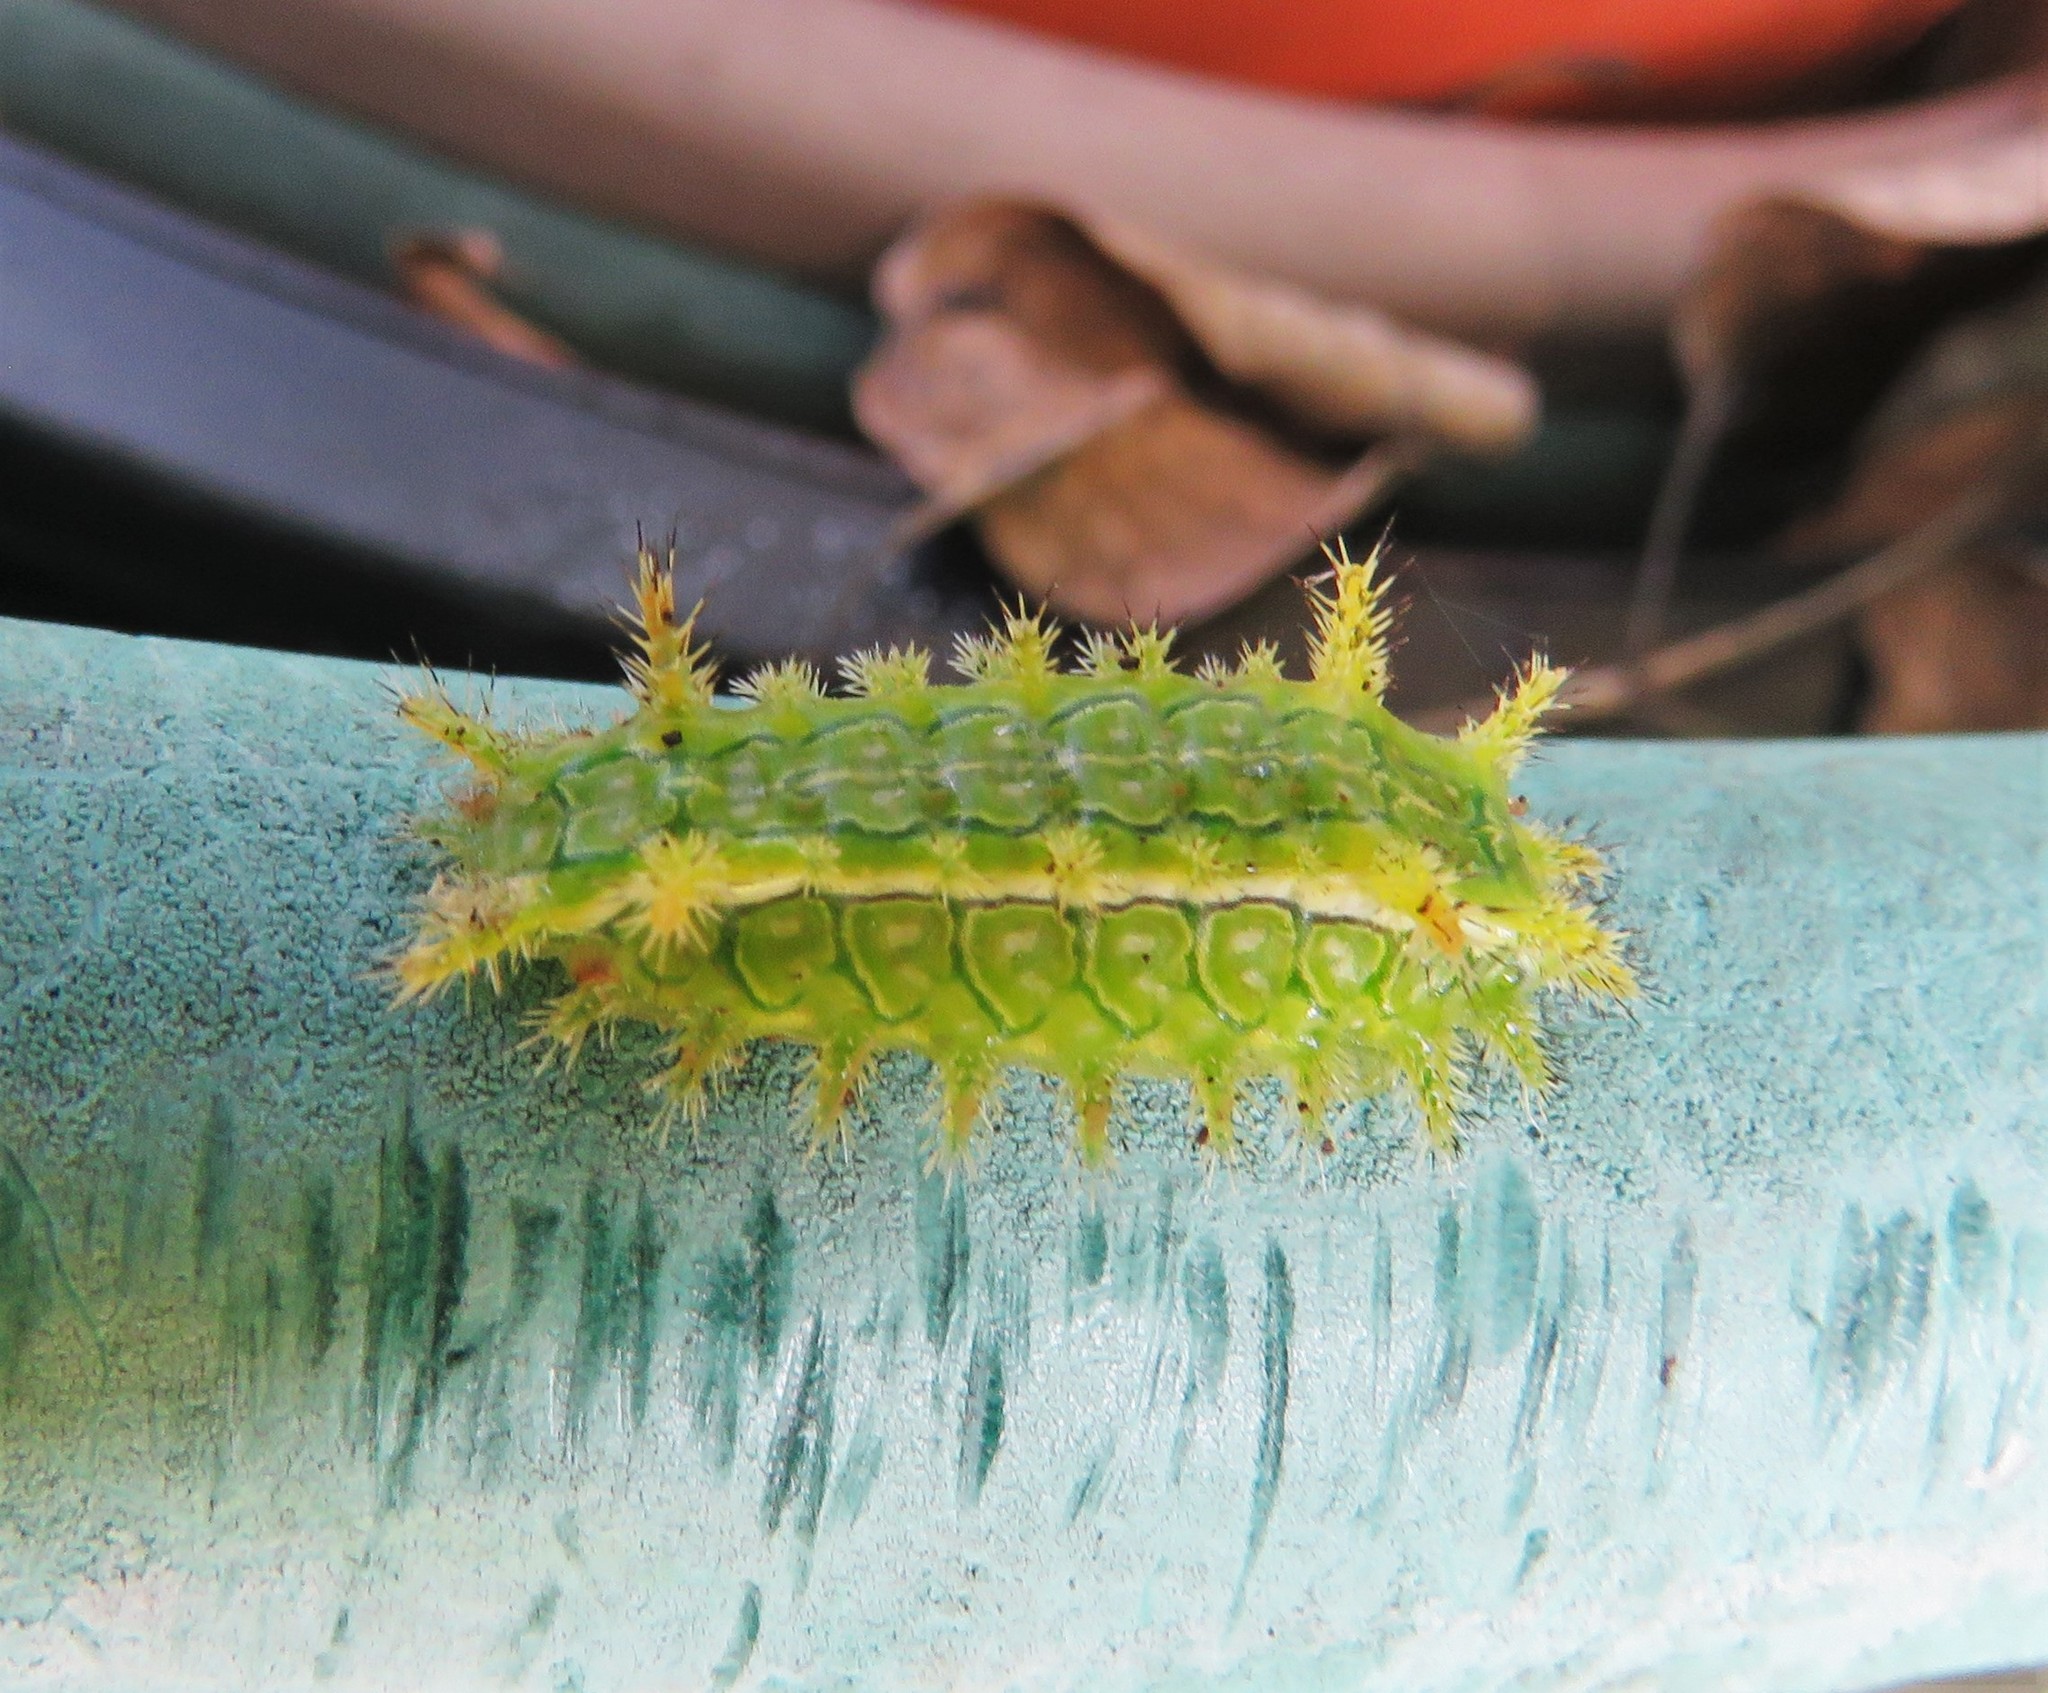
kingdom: Animalia
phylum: Arthropoda
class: Insecta
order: Lepidoptera
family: Limacodidae
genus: Euclea
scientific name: Euclea incisa
